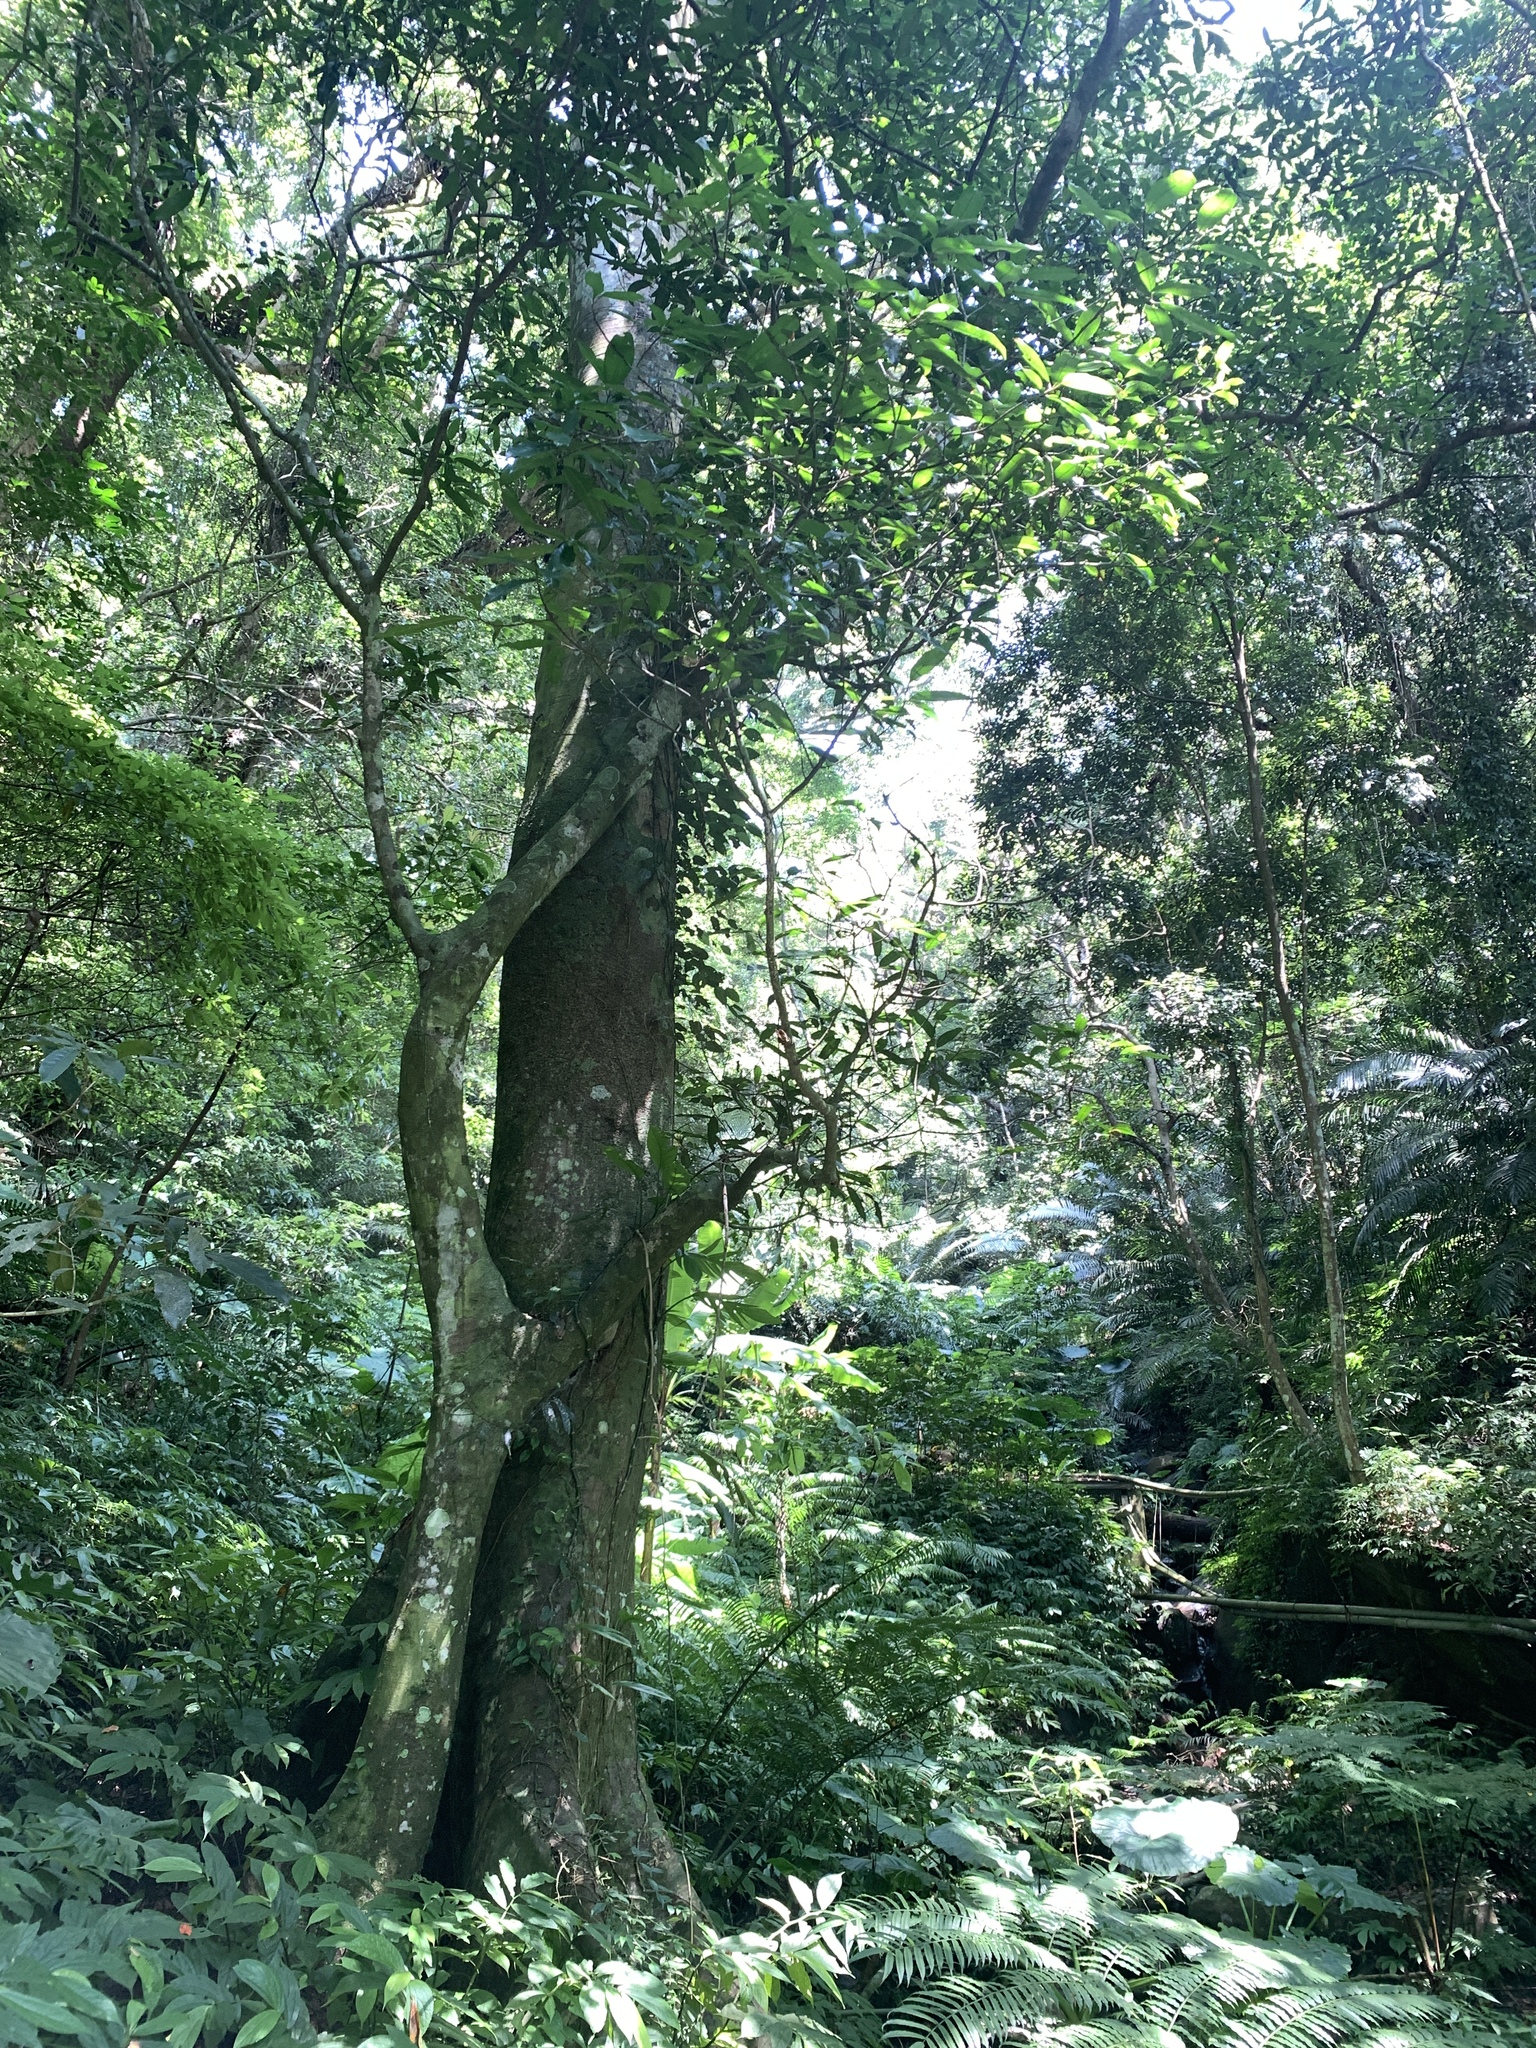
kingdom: Plantae
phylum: Tracheophyta
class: Magnoliopsida
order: Rosales
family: Moraceae
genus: Ficus
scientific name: Ficus nervosa
